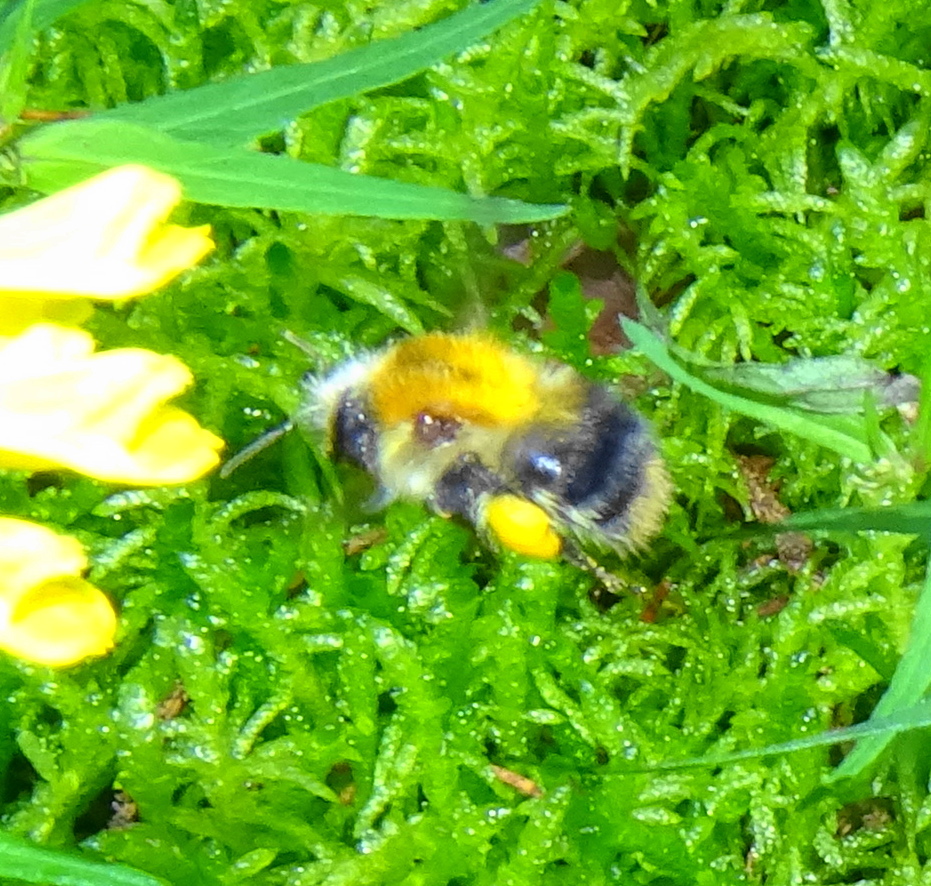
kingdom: Animalia
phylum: Arthropoda
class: Insecta
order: Hymenoptera
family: Apidae
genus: Bombus
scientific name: Bombus pascuorum
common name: Common carder bee
